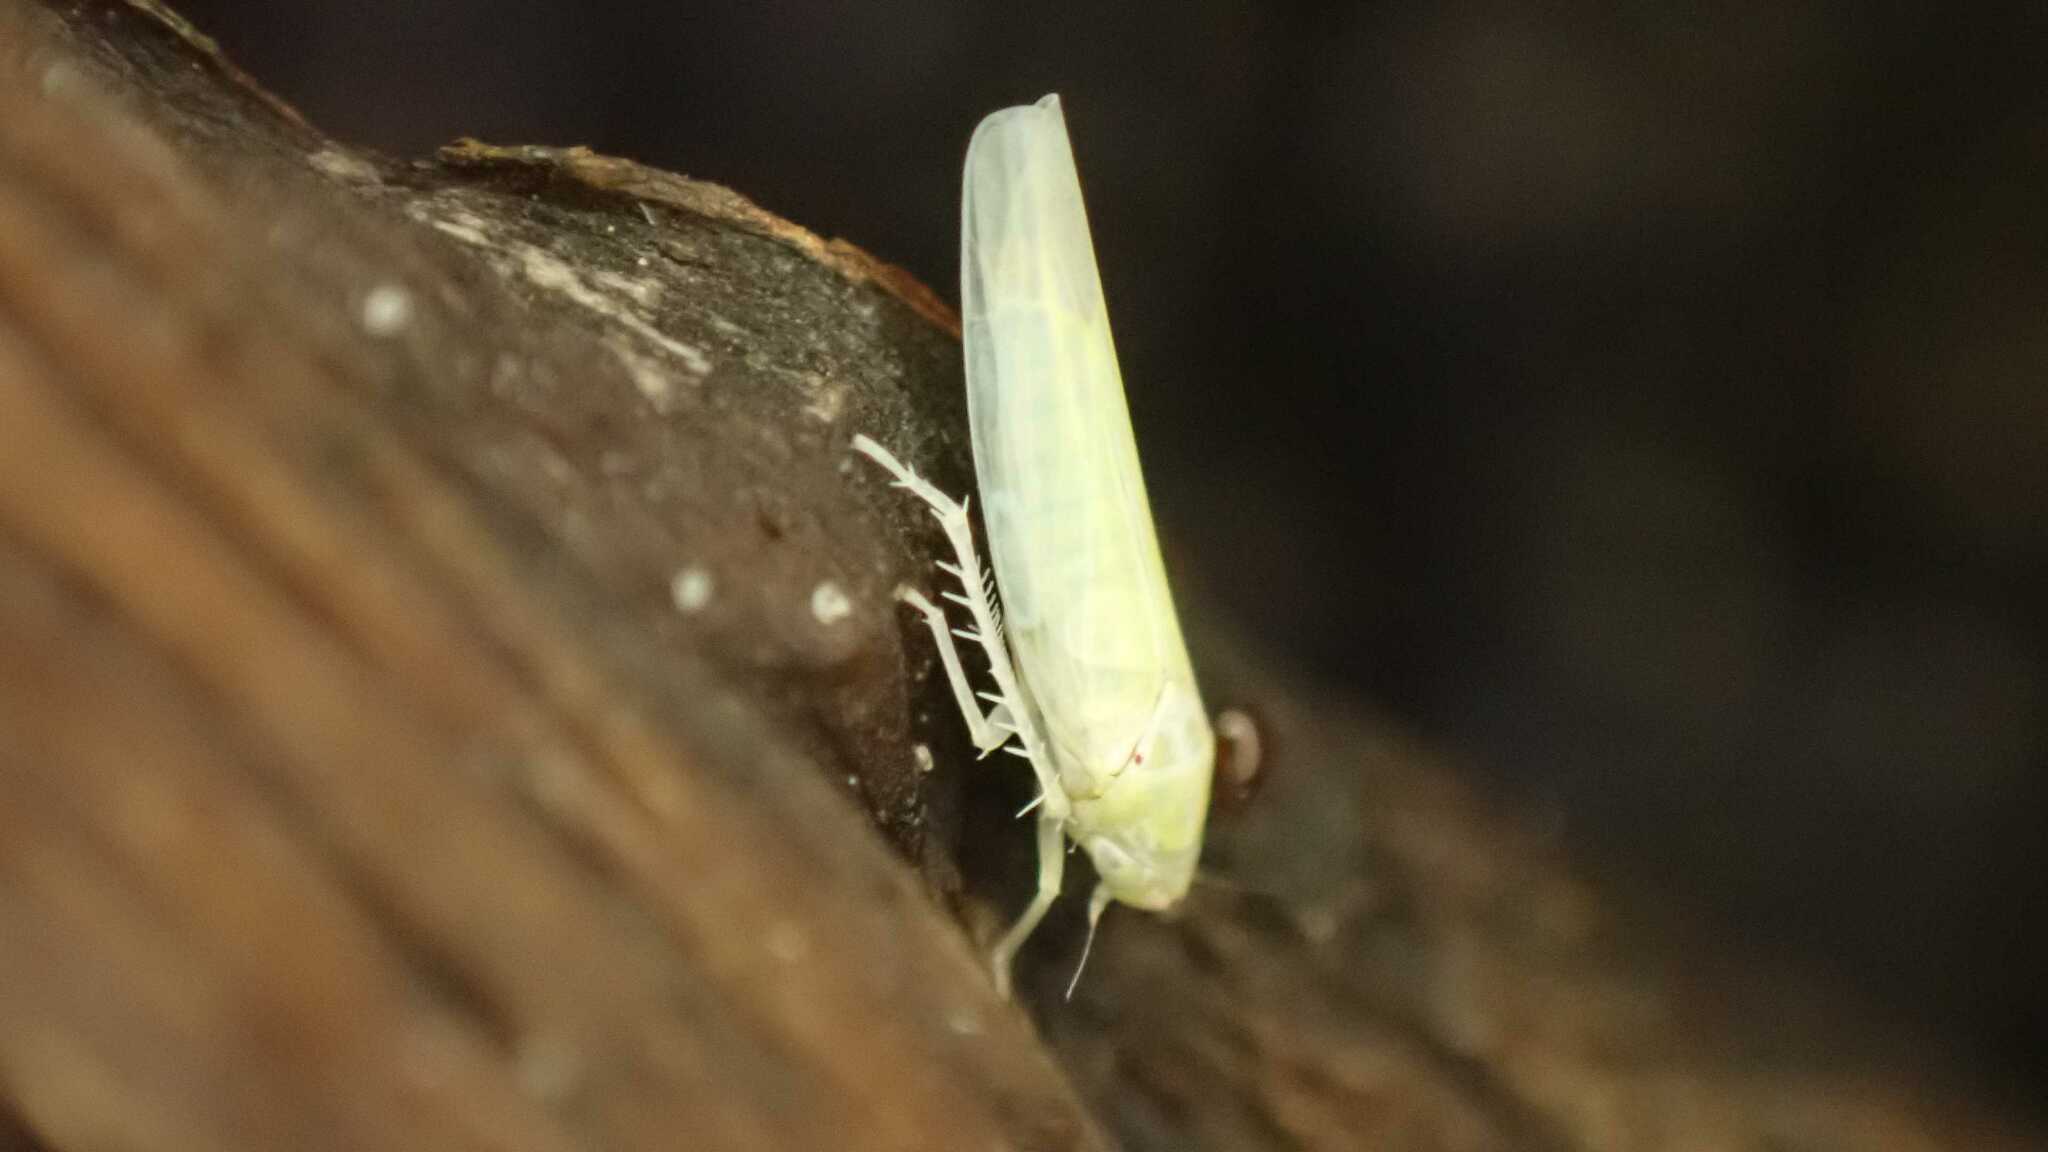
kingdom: Animalia
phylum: Arthropoda
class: Insecta
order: Hemiptera
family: Cicadellidae
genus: Zygina
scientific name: Zygina nivea
